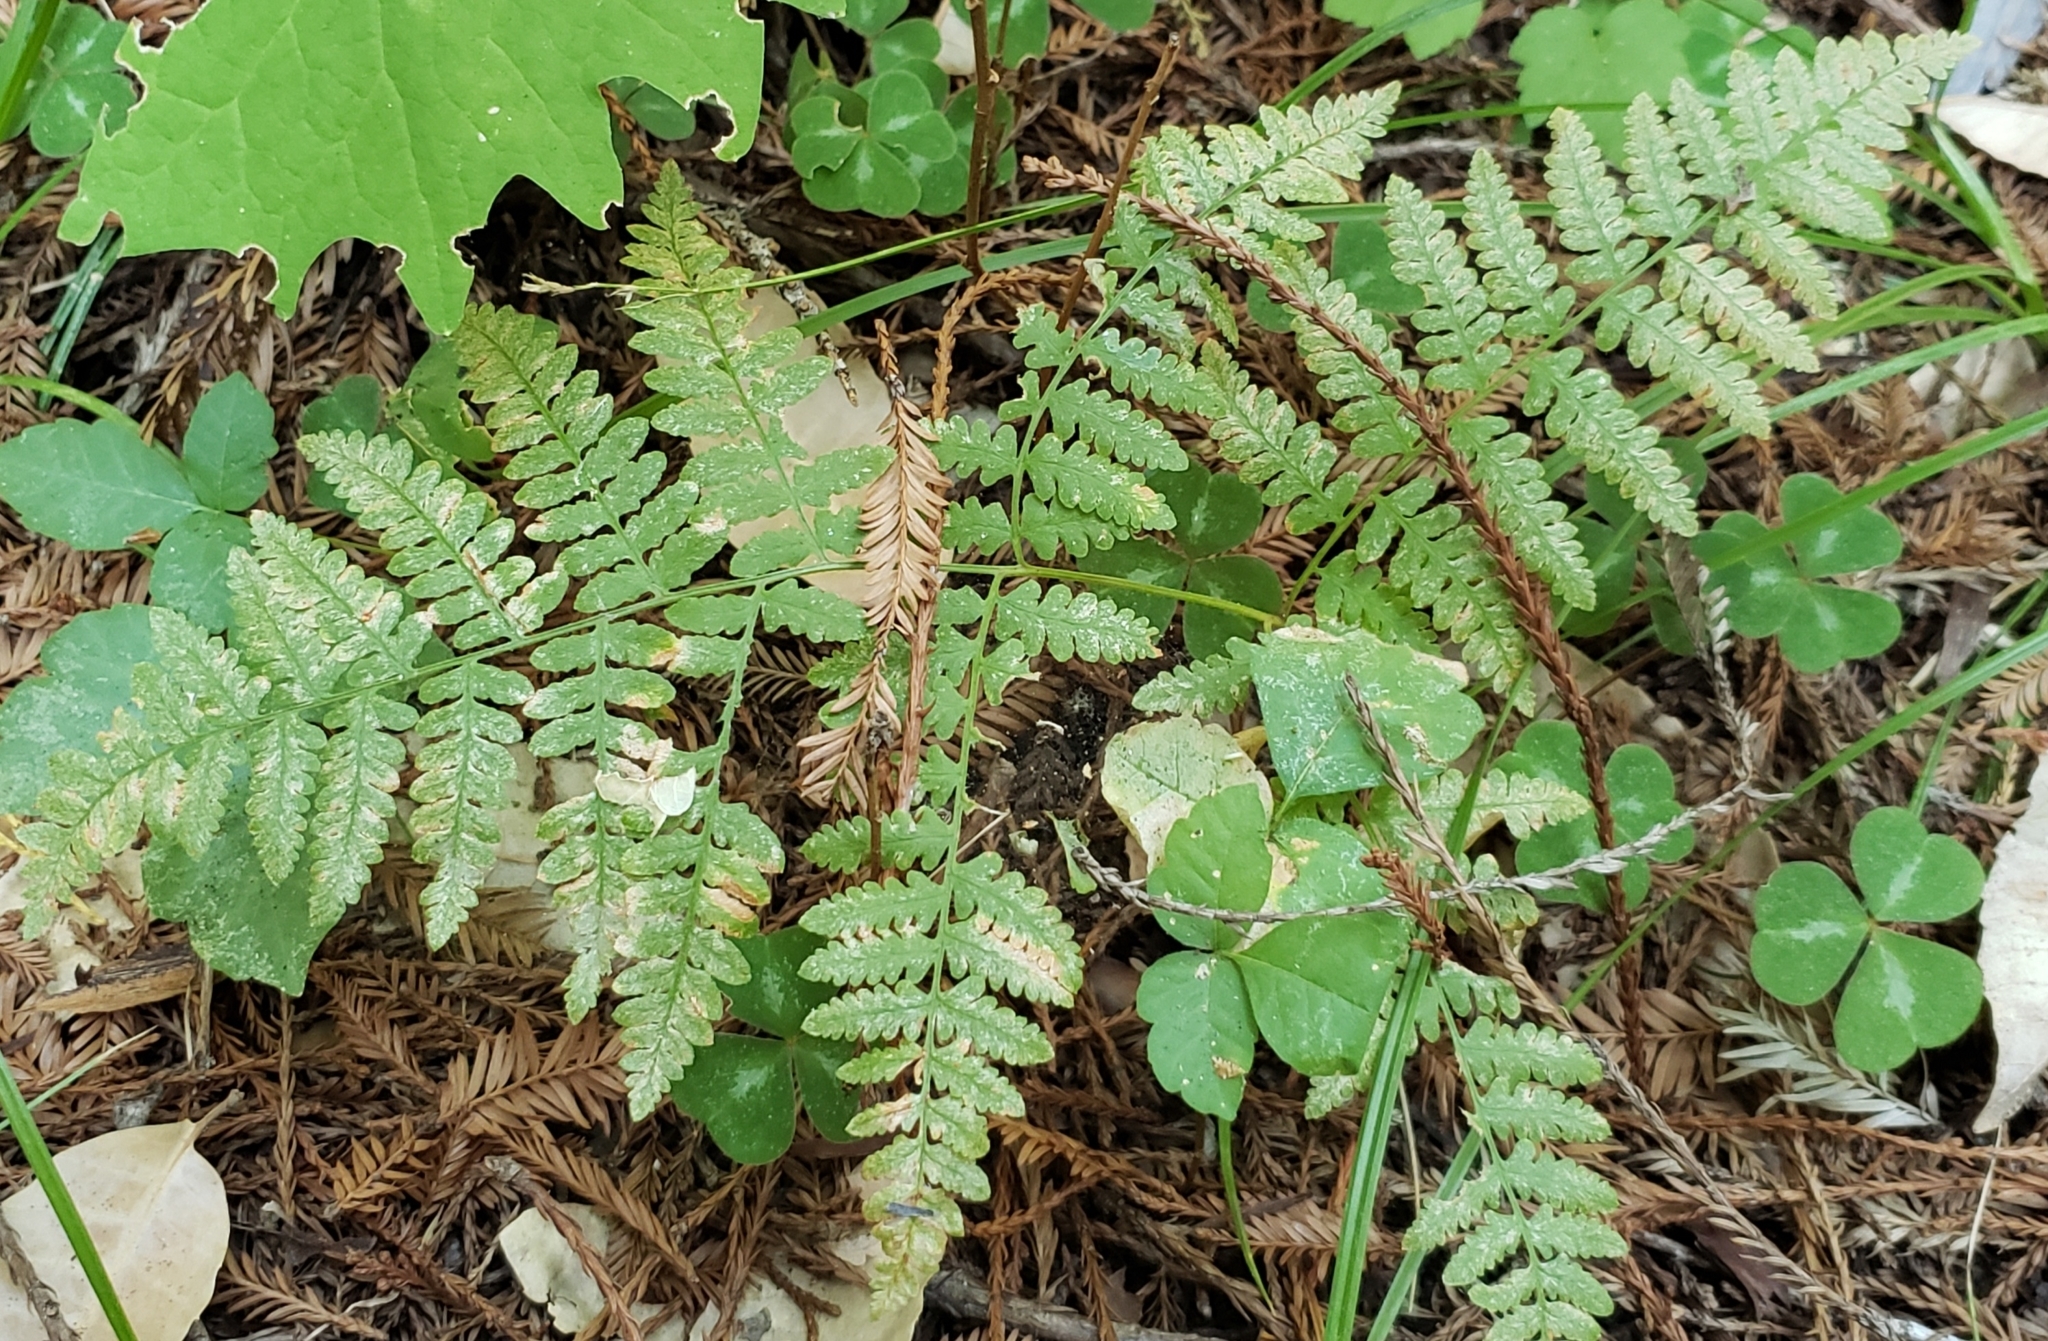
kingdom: Plantae
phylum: Tracheophyta
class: Polypodiopsida
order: Polypodiales
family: Dennstaedtiaceae
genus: Pteridium
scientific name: Pteridium aquilinum
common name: Bracken
